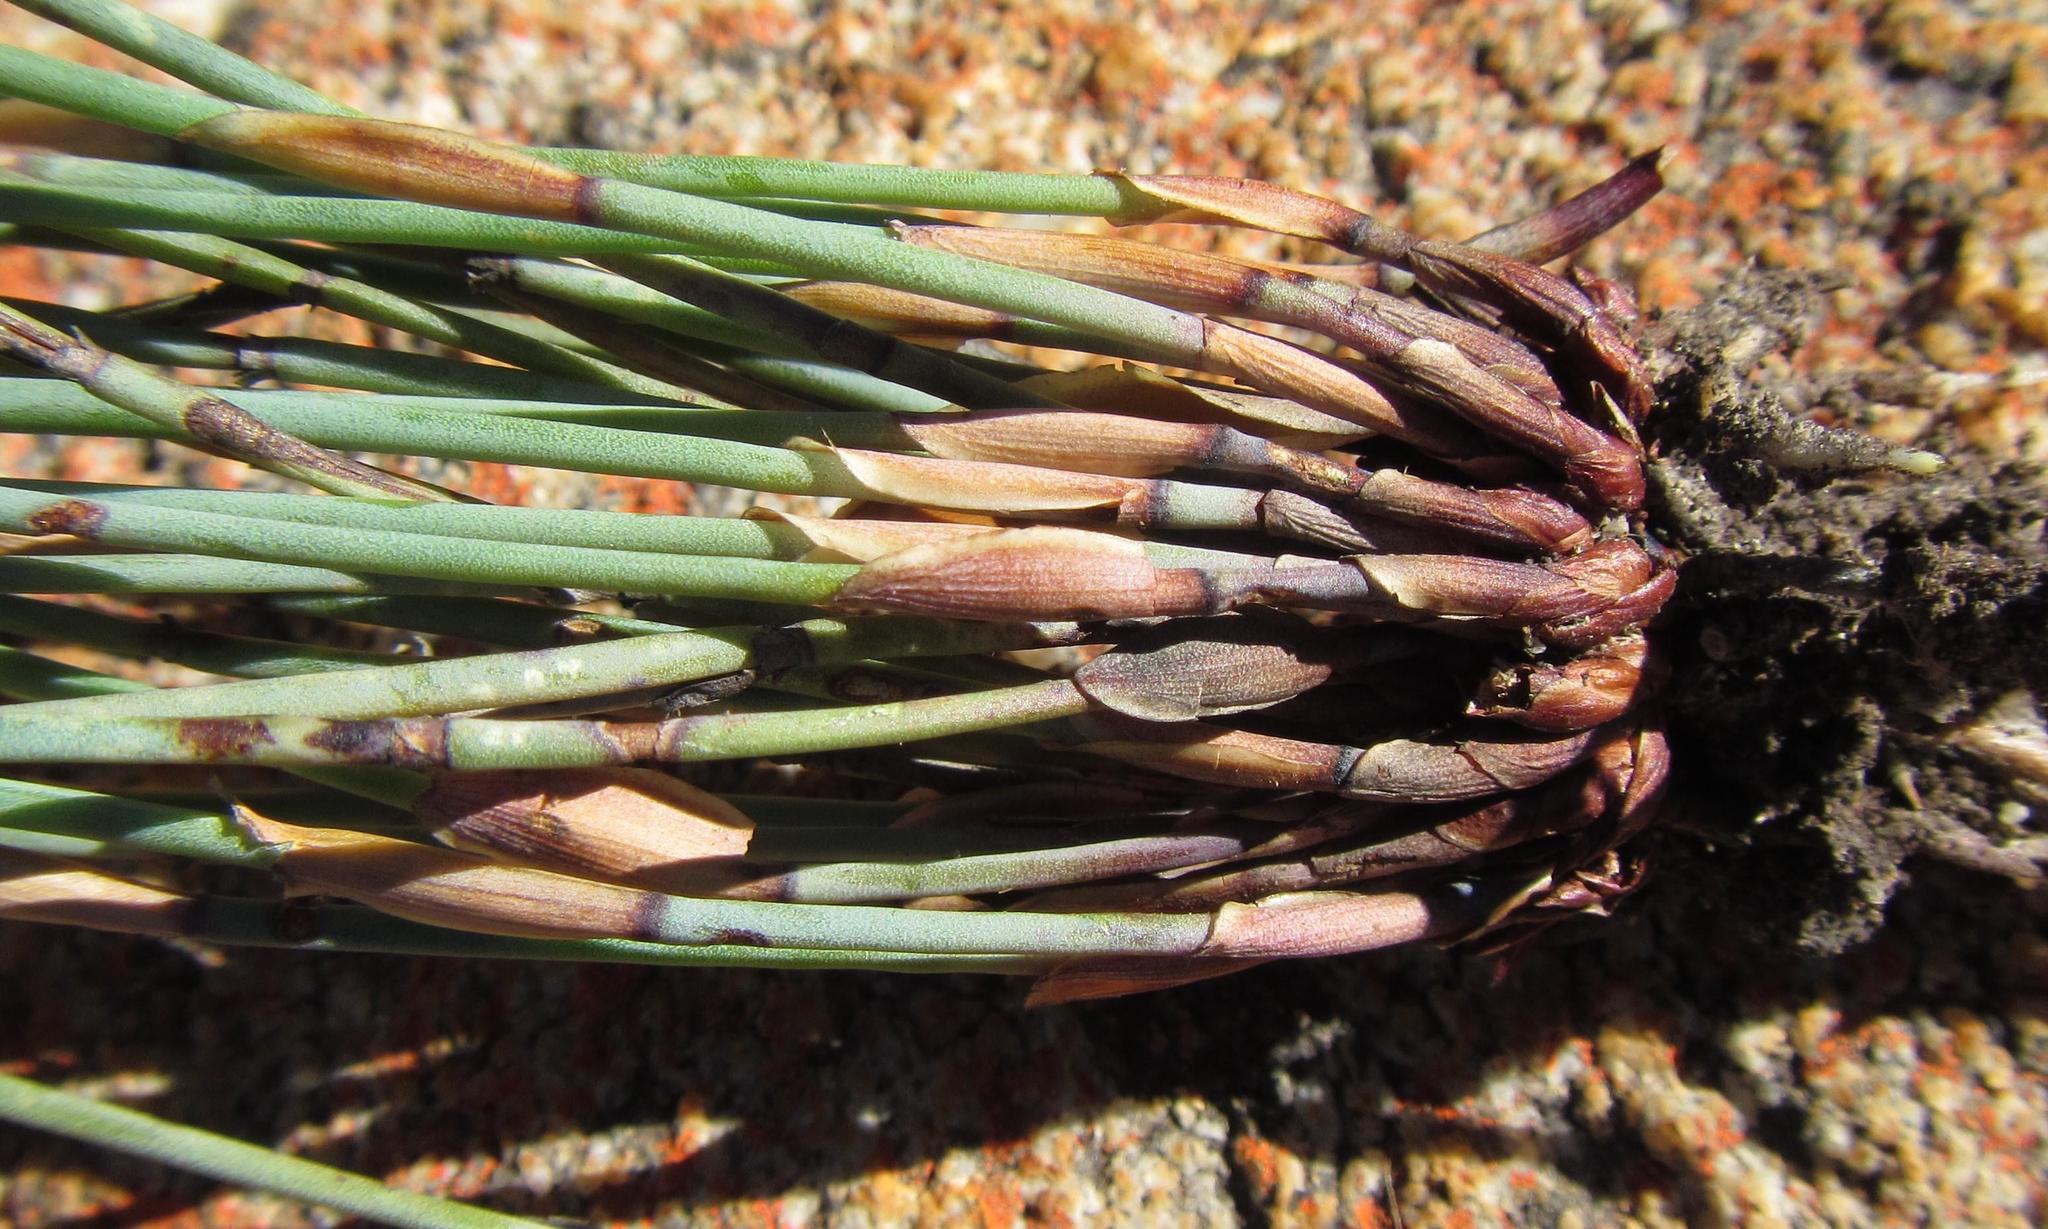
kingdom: Plantae
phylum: Tracheophyta
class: Liliopsida
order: Poales
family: Restionaceae
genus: Elegia
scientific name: Elegia stokoei
